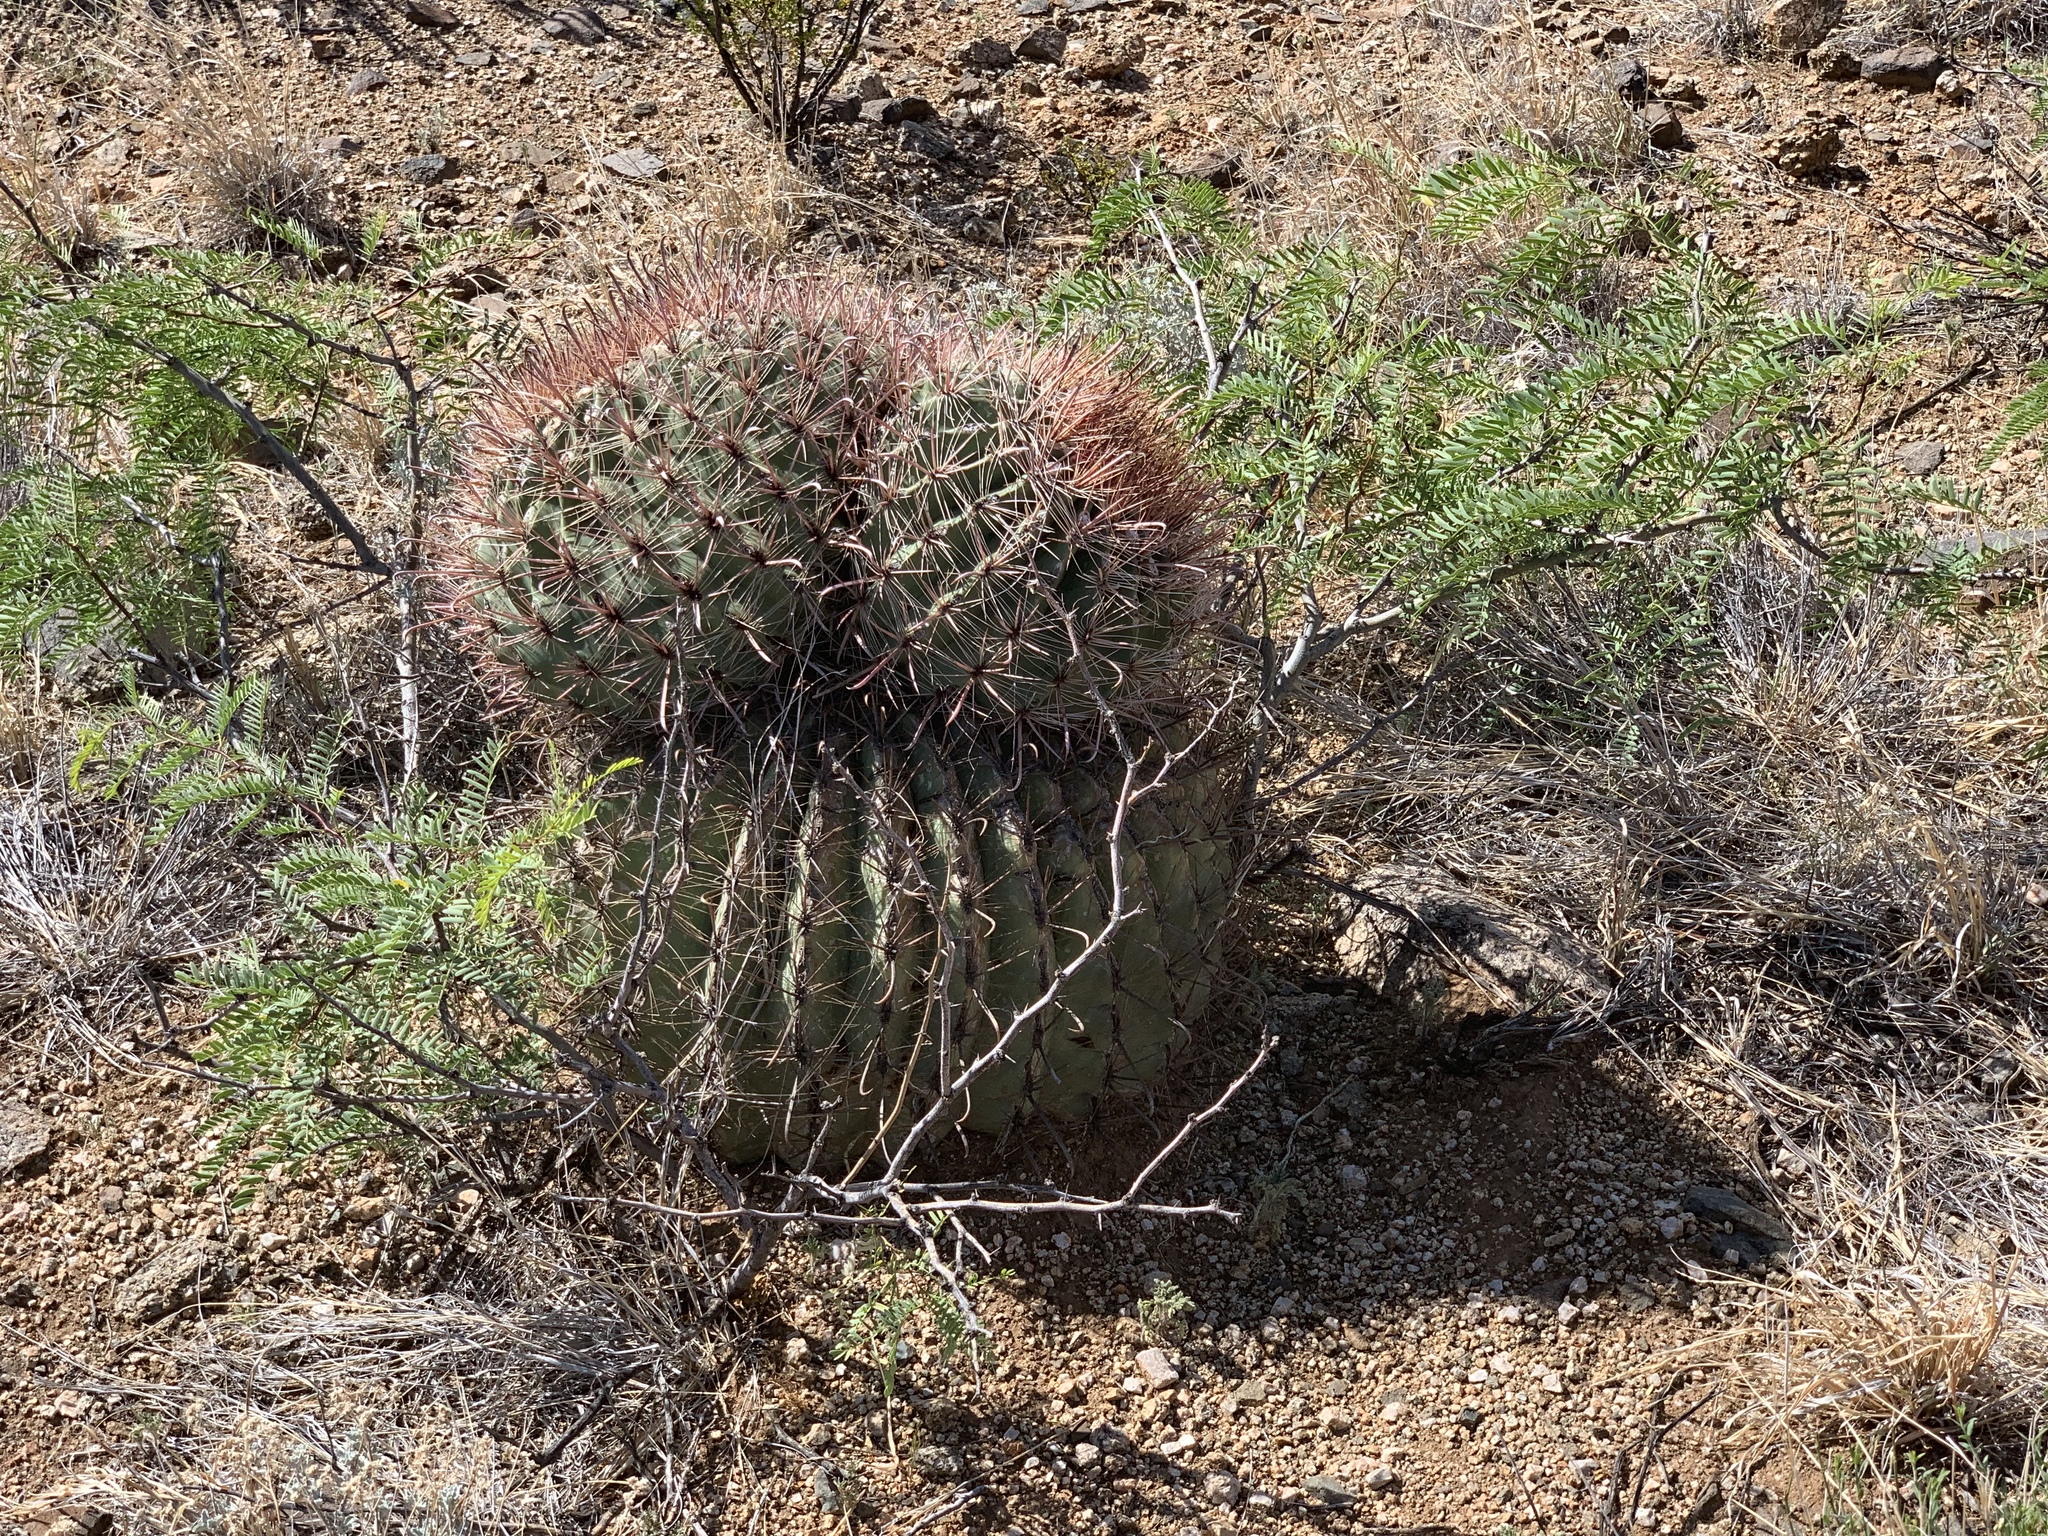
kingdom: Plantae
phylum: Tracheophyta
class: Magnoliopsida
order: Caryophyllales
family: Cactaceae
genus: Ferocactus
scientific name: Ferocactus wislizeni
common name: Candy barrel cactus
